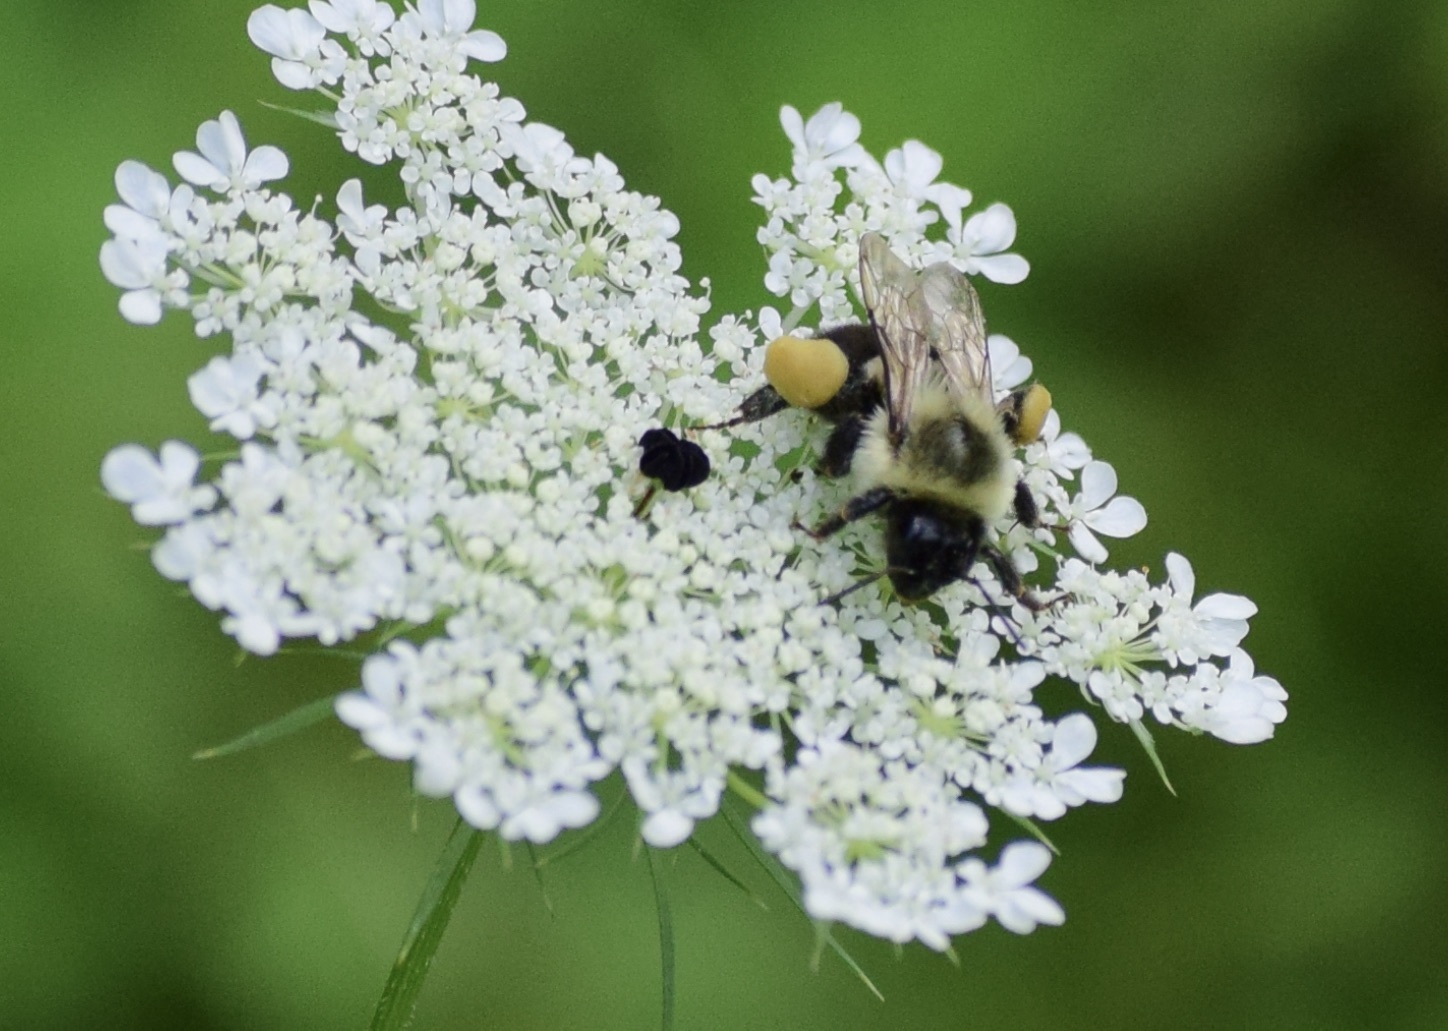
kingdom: Animalia
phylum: Arthropoda
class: Insecta
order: Hymenoptera
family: Apidae
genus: Bombus
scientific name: Bombus impatiens
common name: Common eastern bumble bee
